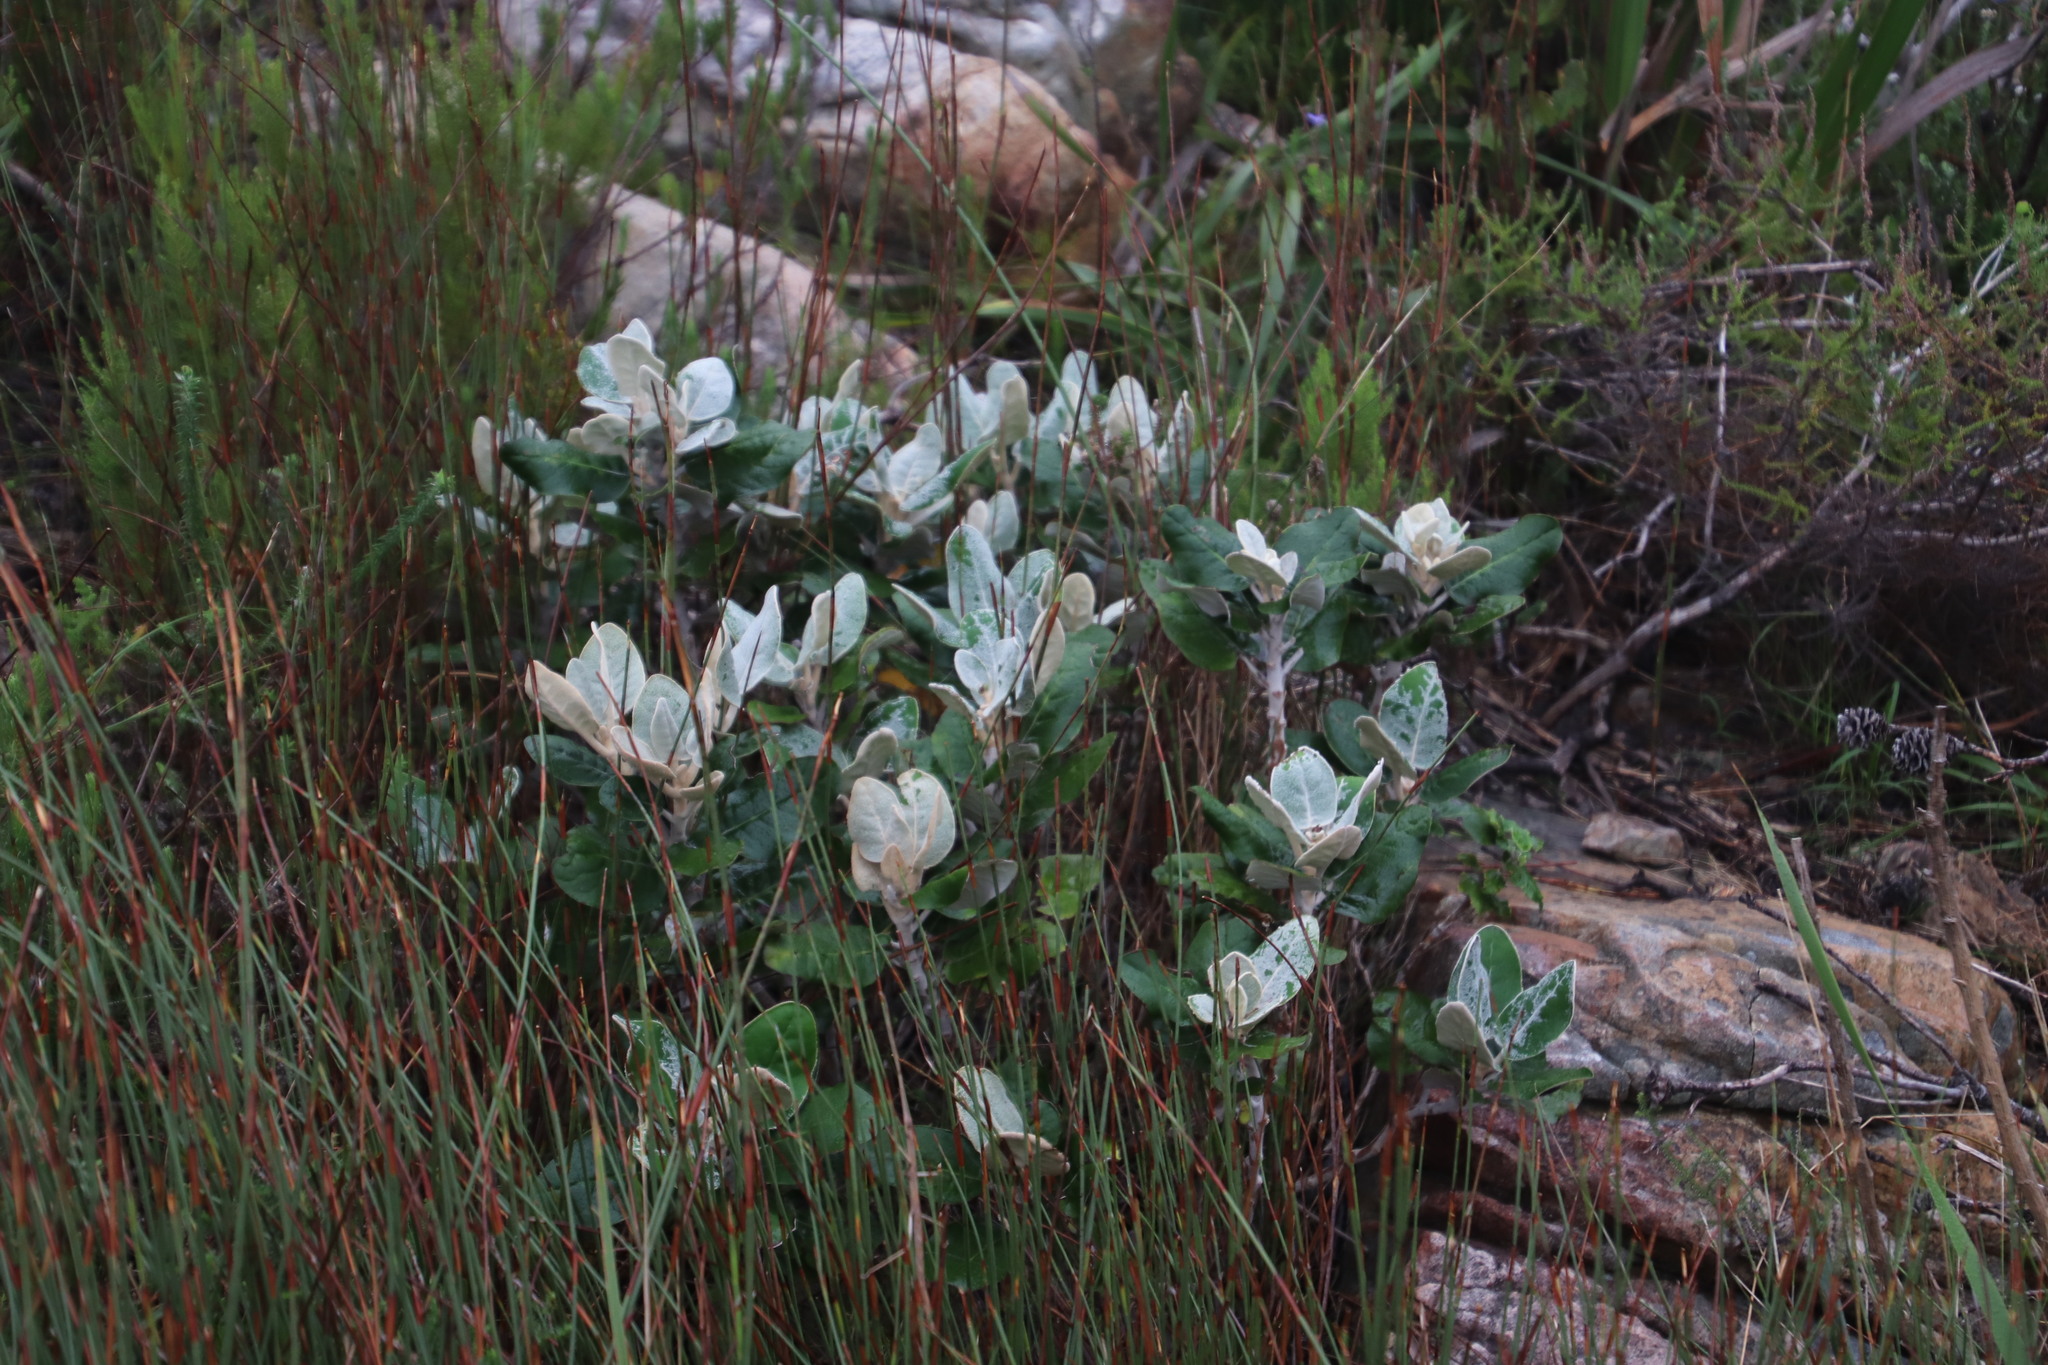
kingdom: Plantae
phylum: Tracheophyta
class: Magnoliopsida
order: Asterales
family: Asteraceae
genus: Capelio
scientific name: Capelio tabularis
